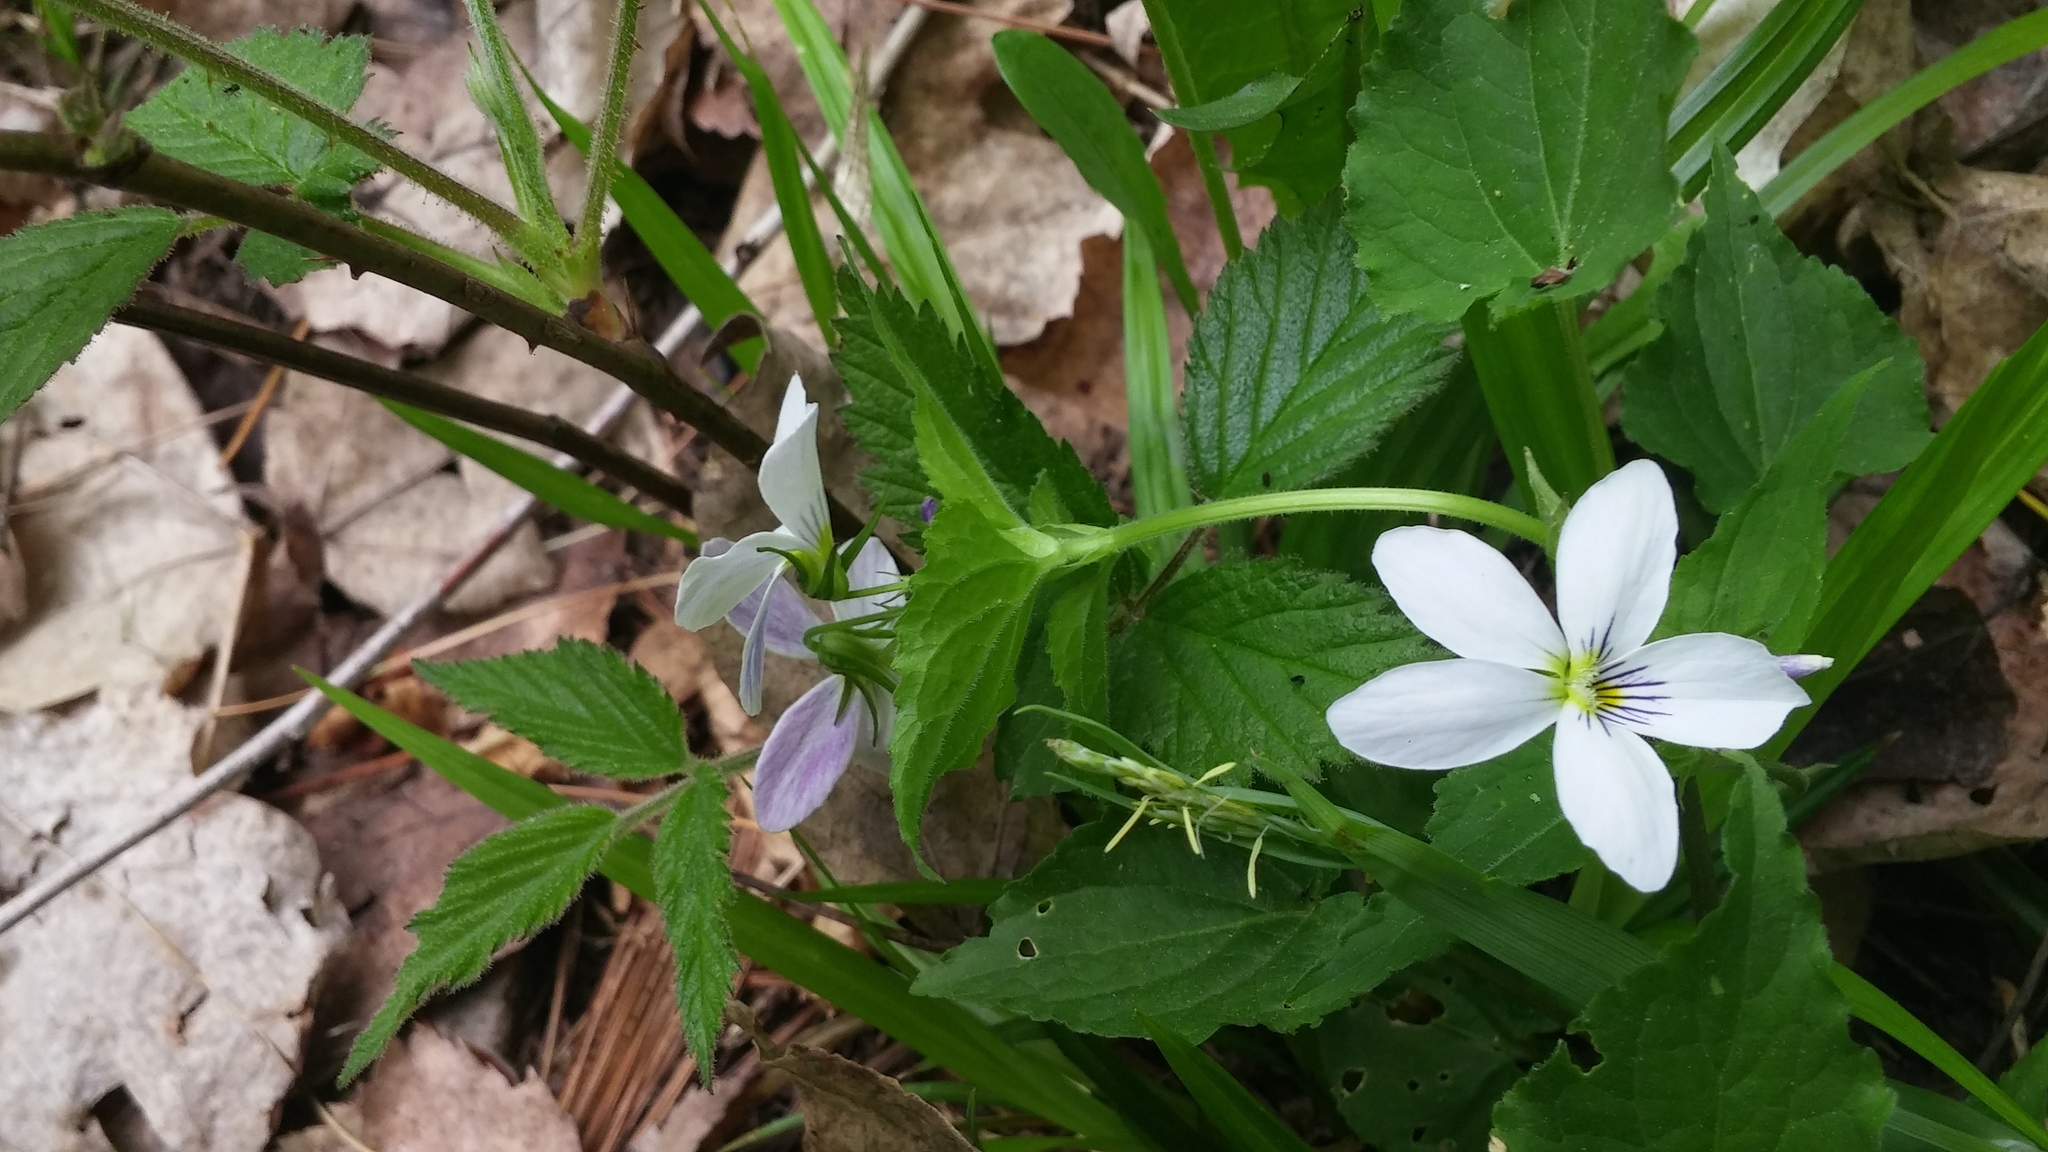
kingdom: Plantae
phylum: Tracheophyta
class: Magnoliopsida
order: Malpighiales
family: Violaceae
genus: Viola
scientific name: Viola canadensis
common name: Canada violet
